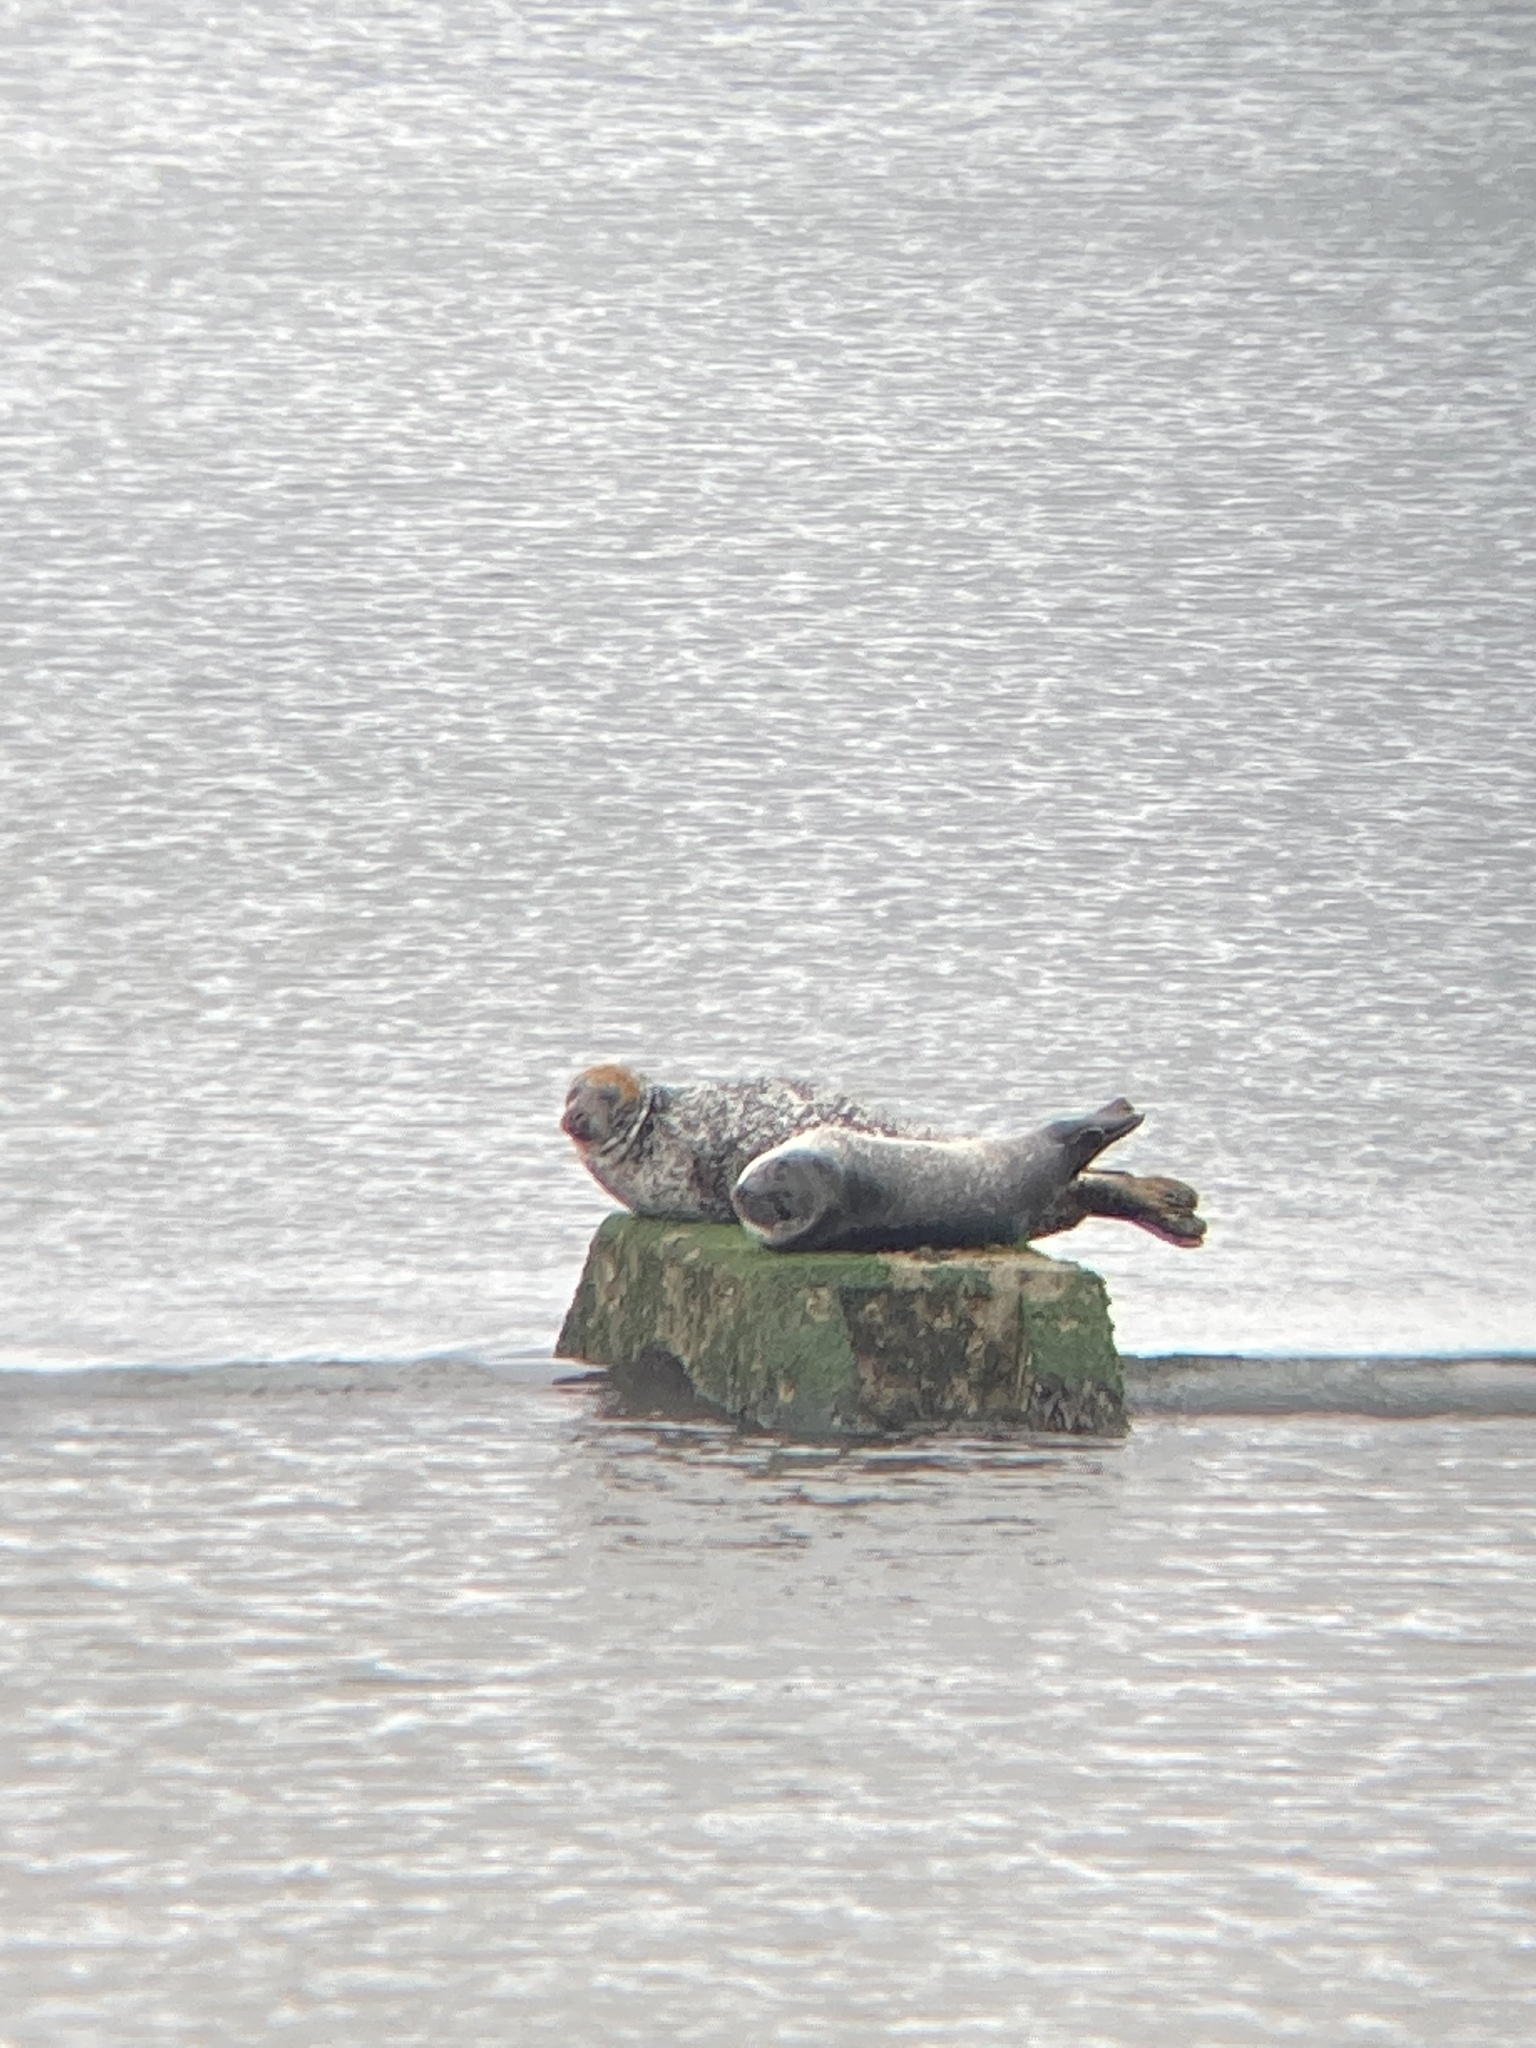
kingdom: Animalia
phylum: Chordata
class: Mammalia
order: Carnivora
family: Phocidae
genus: Phoca
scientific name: Phoca vitulina
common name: Harbor seal
